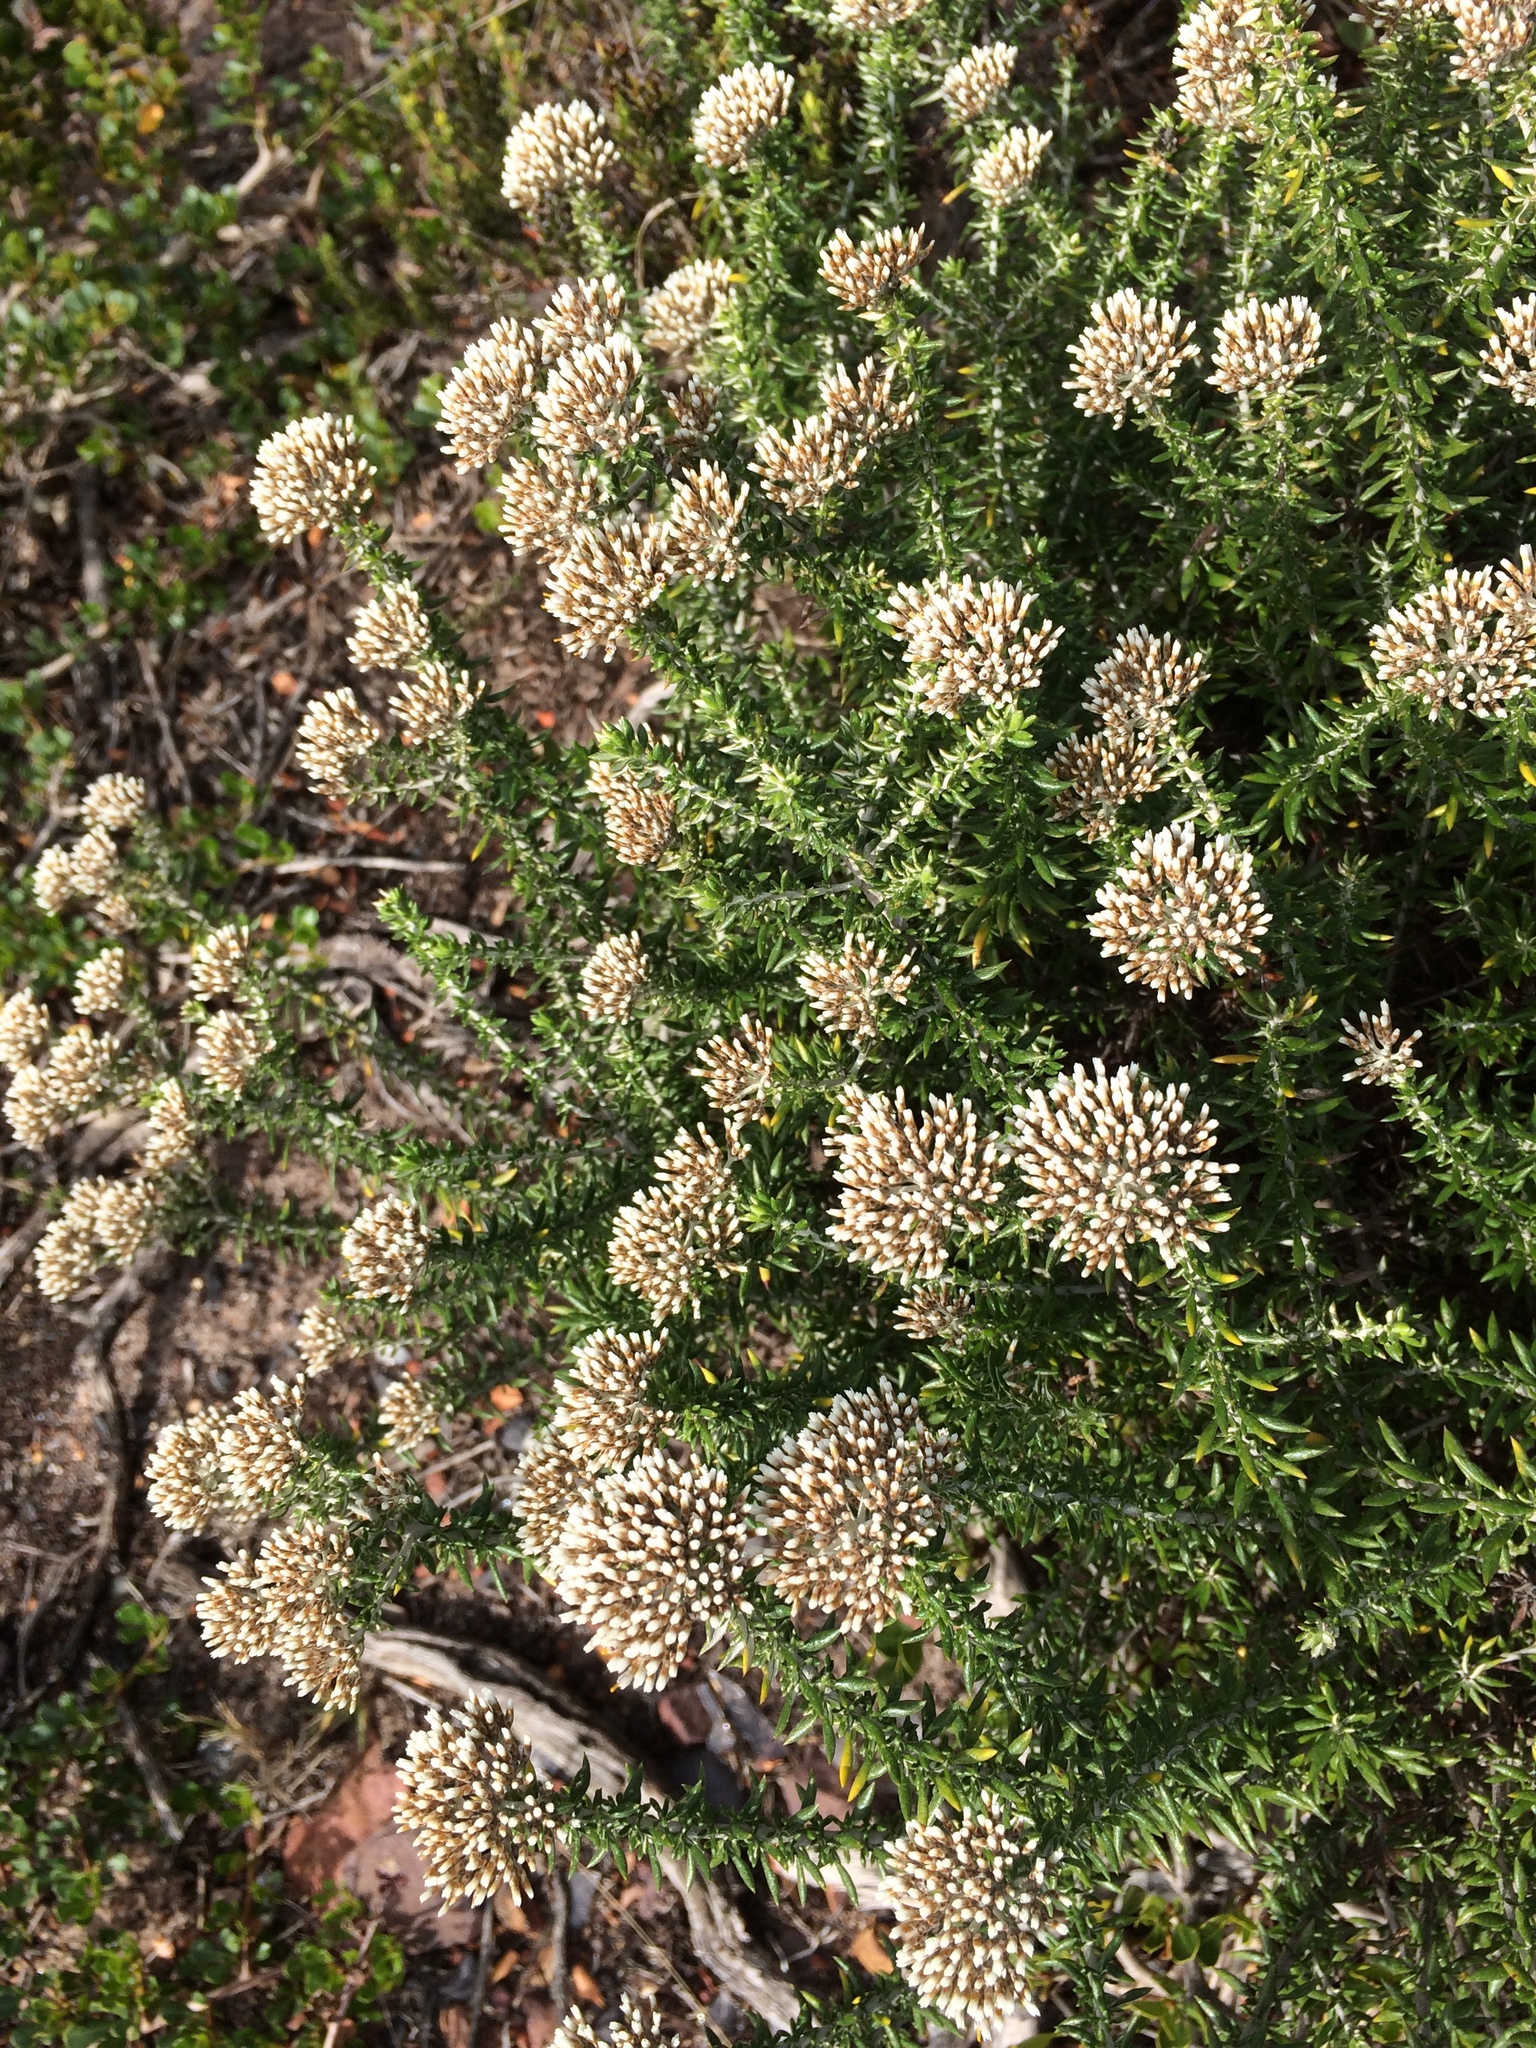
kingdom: Plantae
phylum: Tracheophyta
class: Magnoliopsida
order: Asterales
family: Asteraceae
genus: Metalasia
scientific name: Metalasia densa
